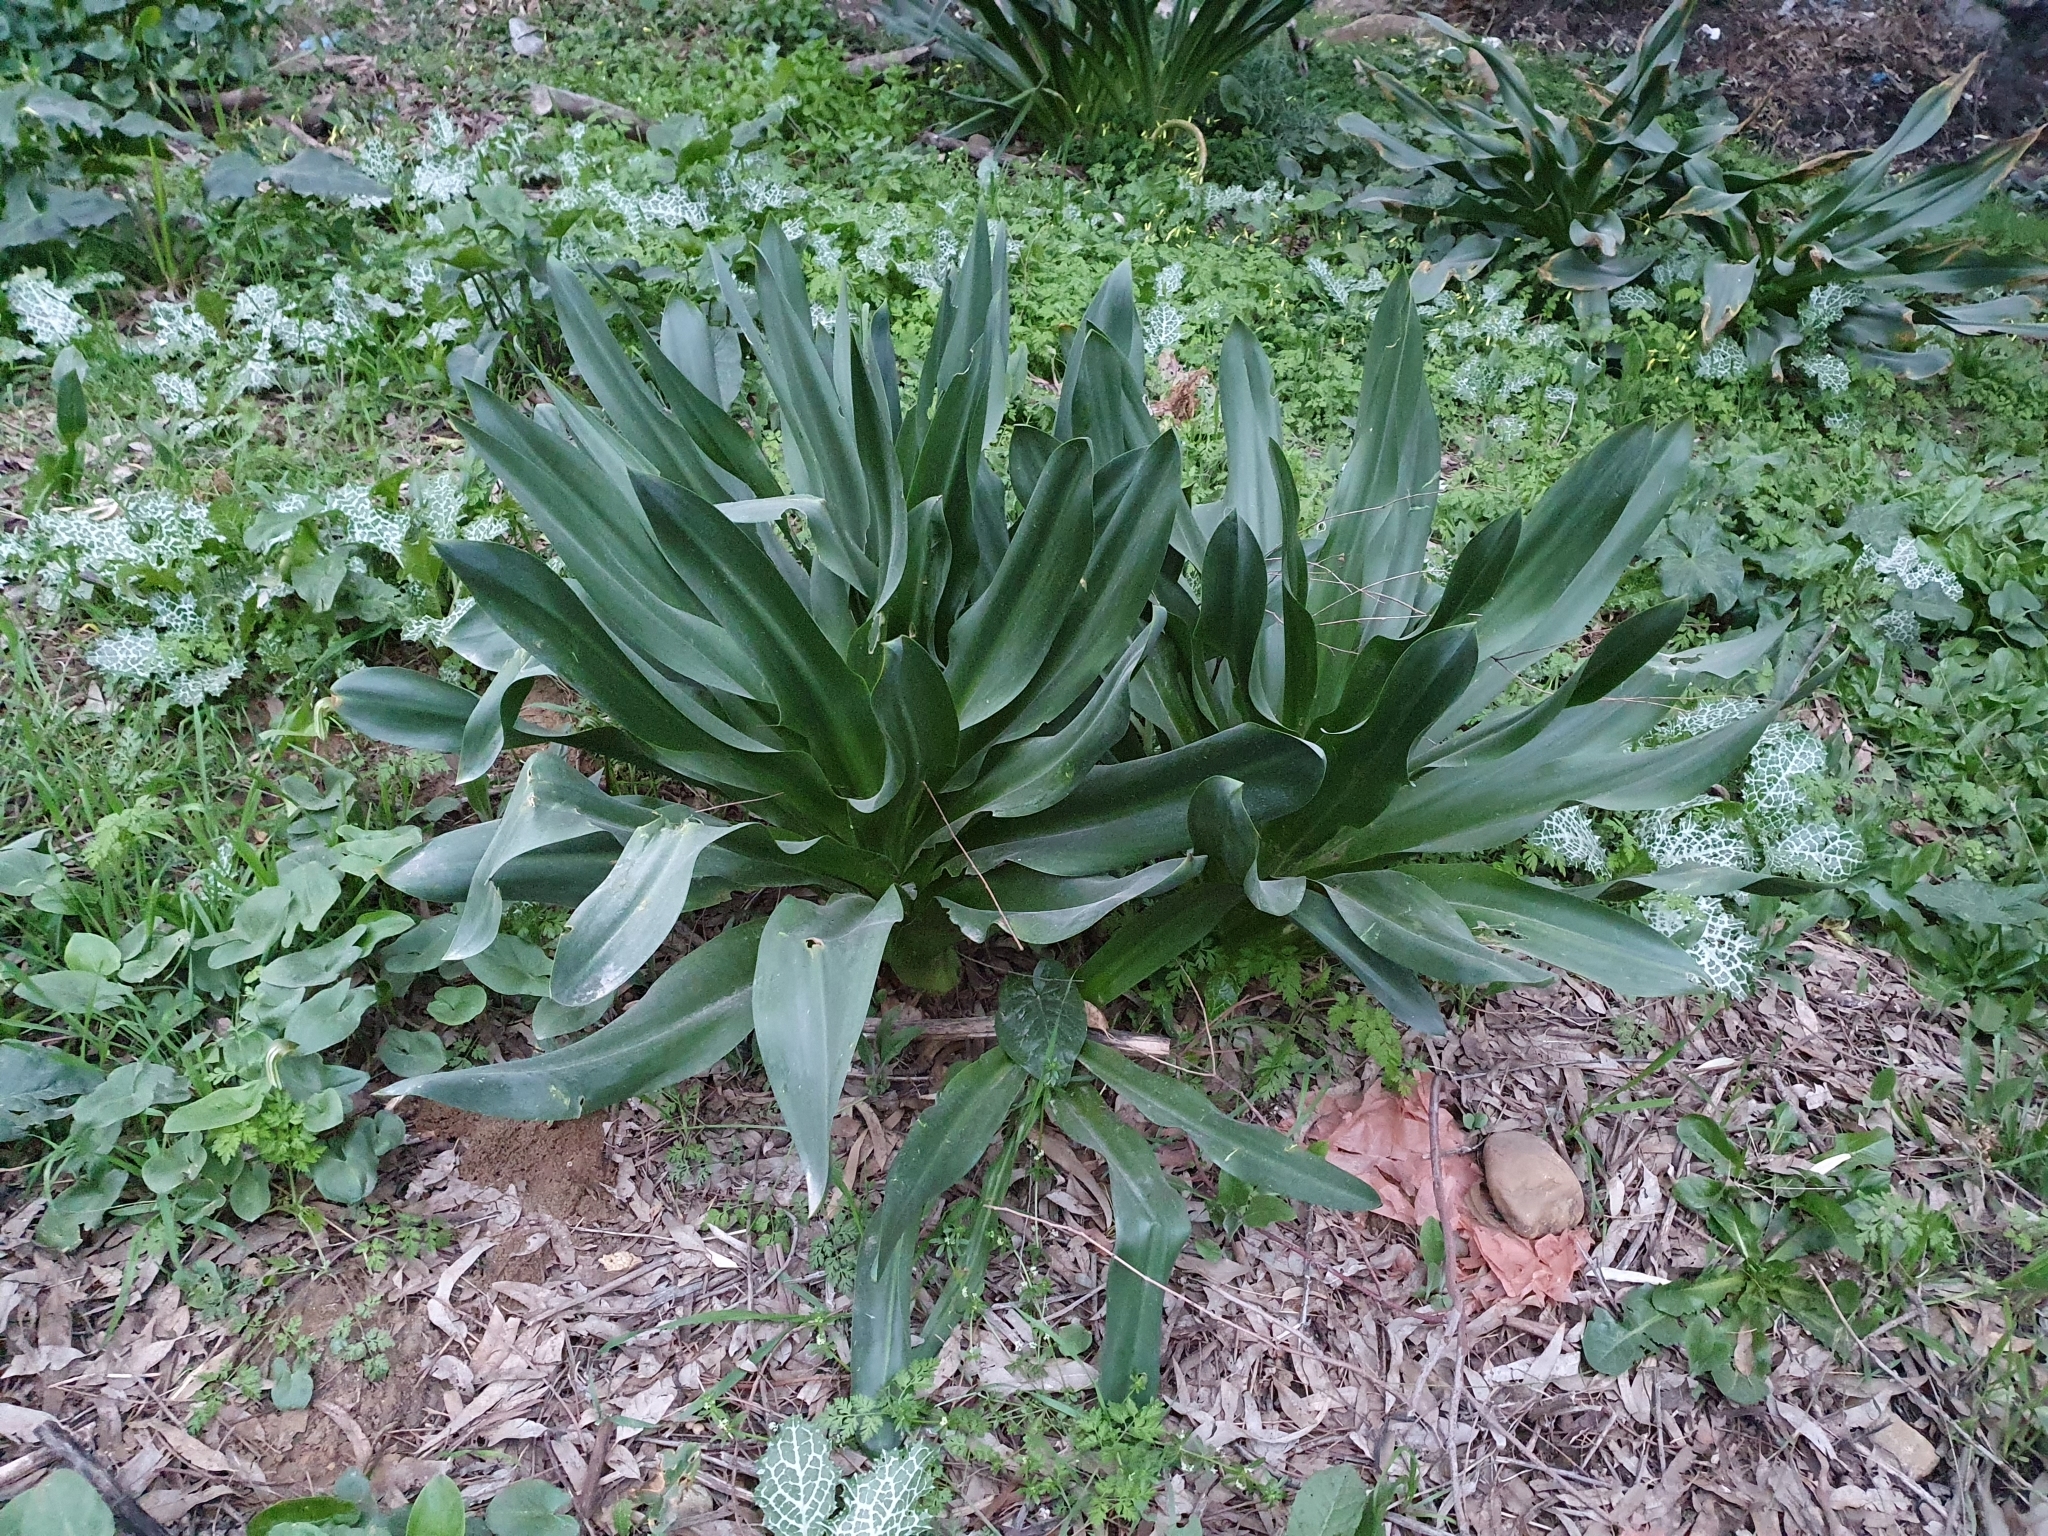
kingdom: Plantae
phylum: Tracheophyta
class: Liliopsida
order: Asparagales
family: Asparagaceae
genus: Drimia
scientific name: Drimia numidica
